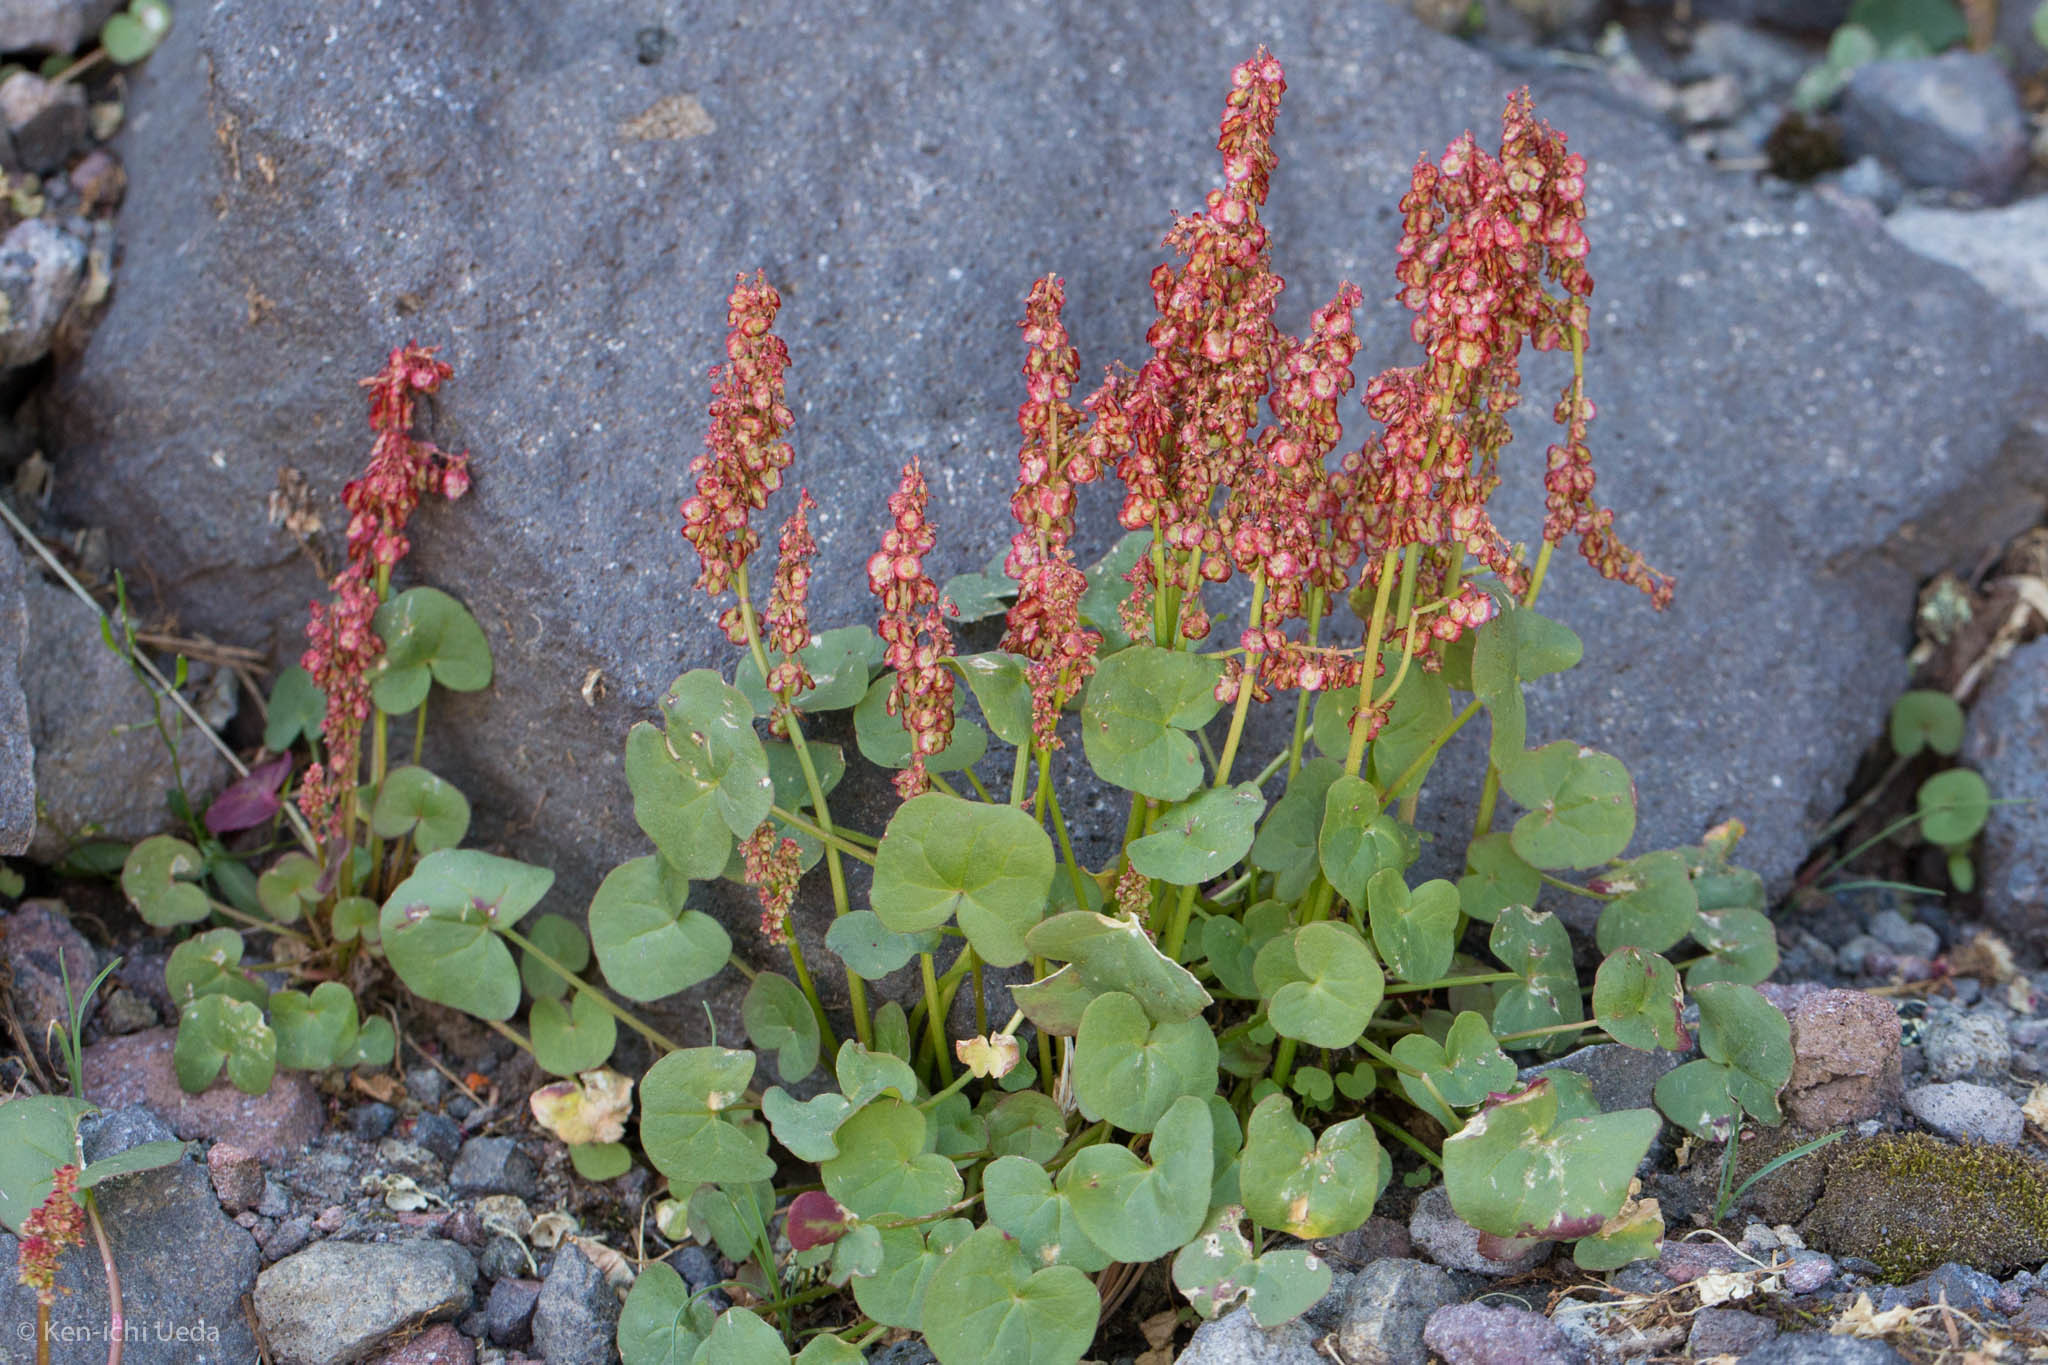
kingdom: Plantae
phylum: Tracheophyta
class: Magnoliopsida
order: Caryophyllales
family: Polygonaceae
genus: Oxyria
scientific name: Oxyria digyna
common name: Alpine mountain-sorrel
